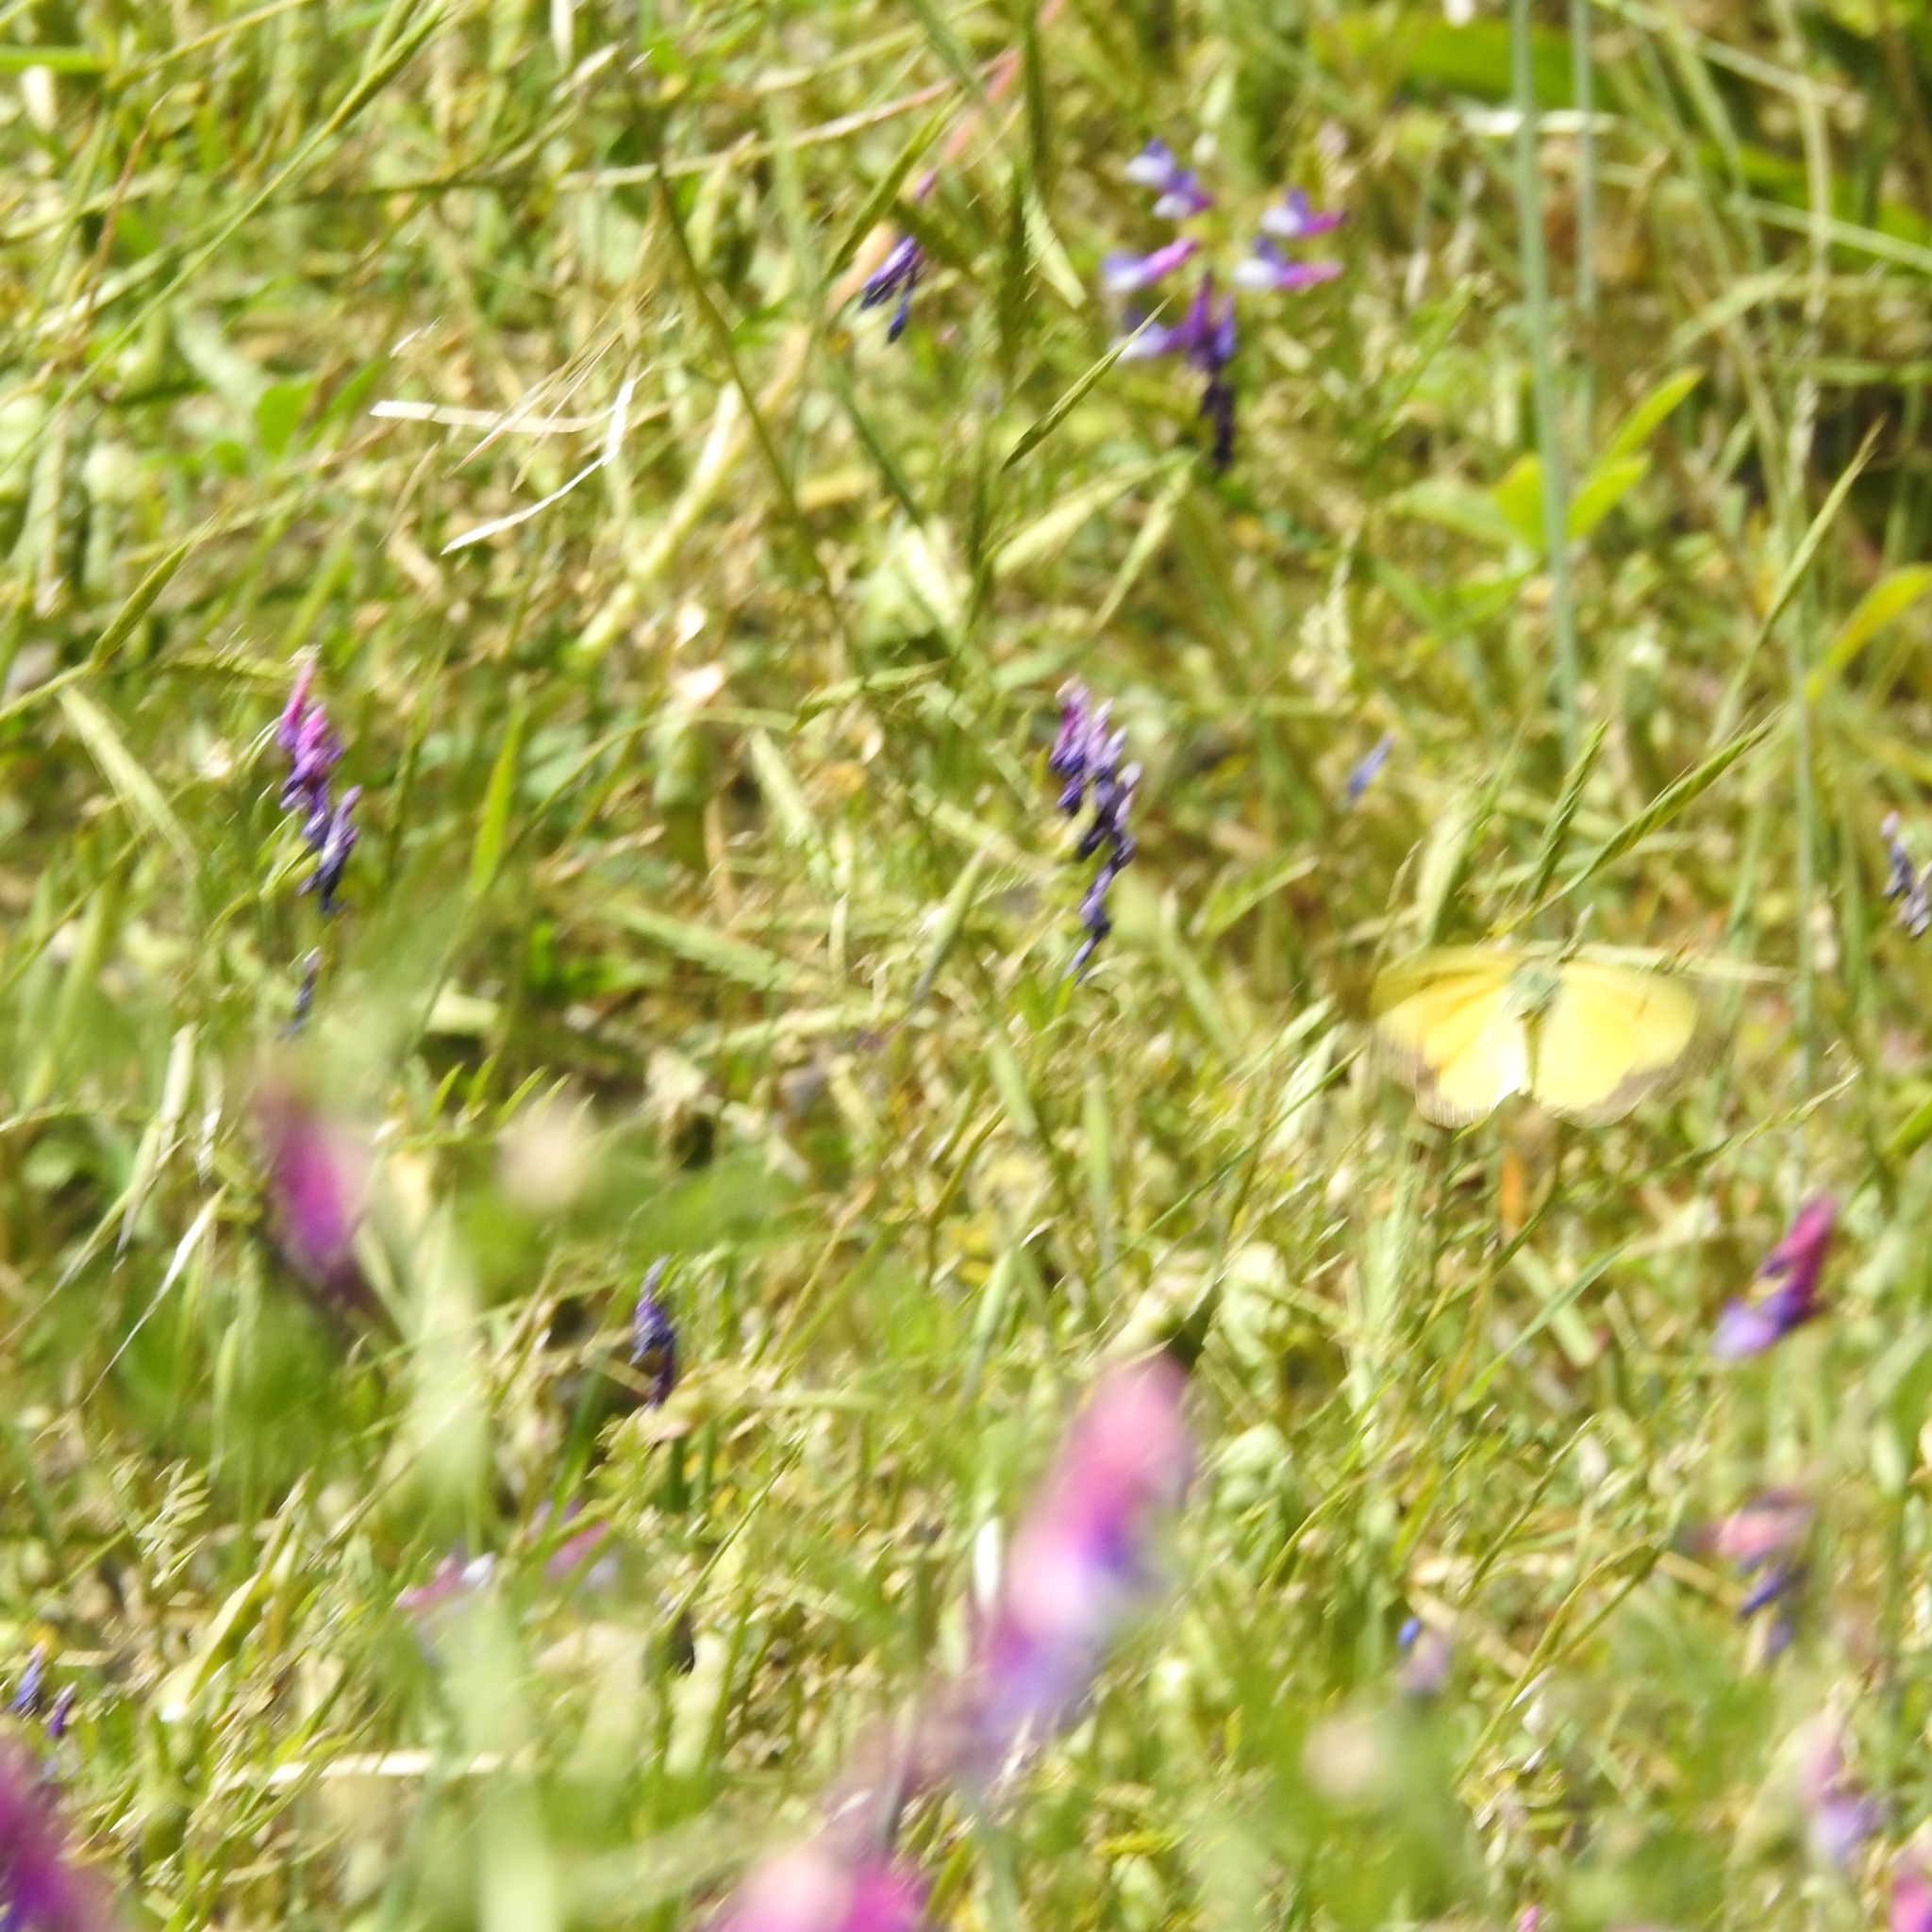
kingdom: Animalia
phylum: Arthropoda
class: Insecta
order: Lepidoptera
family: Pieridae
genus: Colias
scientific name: Colias eurytheme
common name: Alfalfa butterfly
